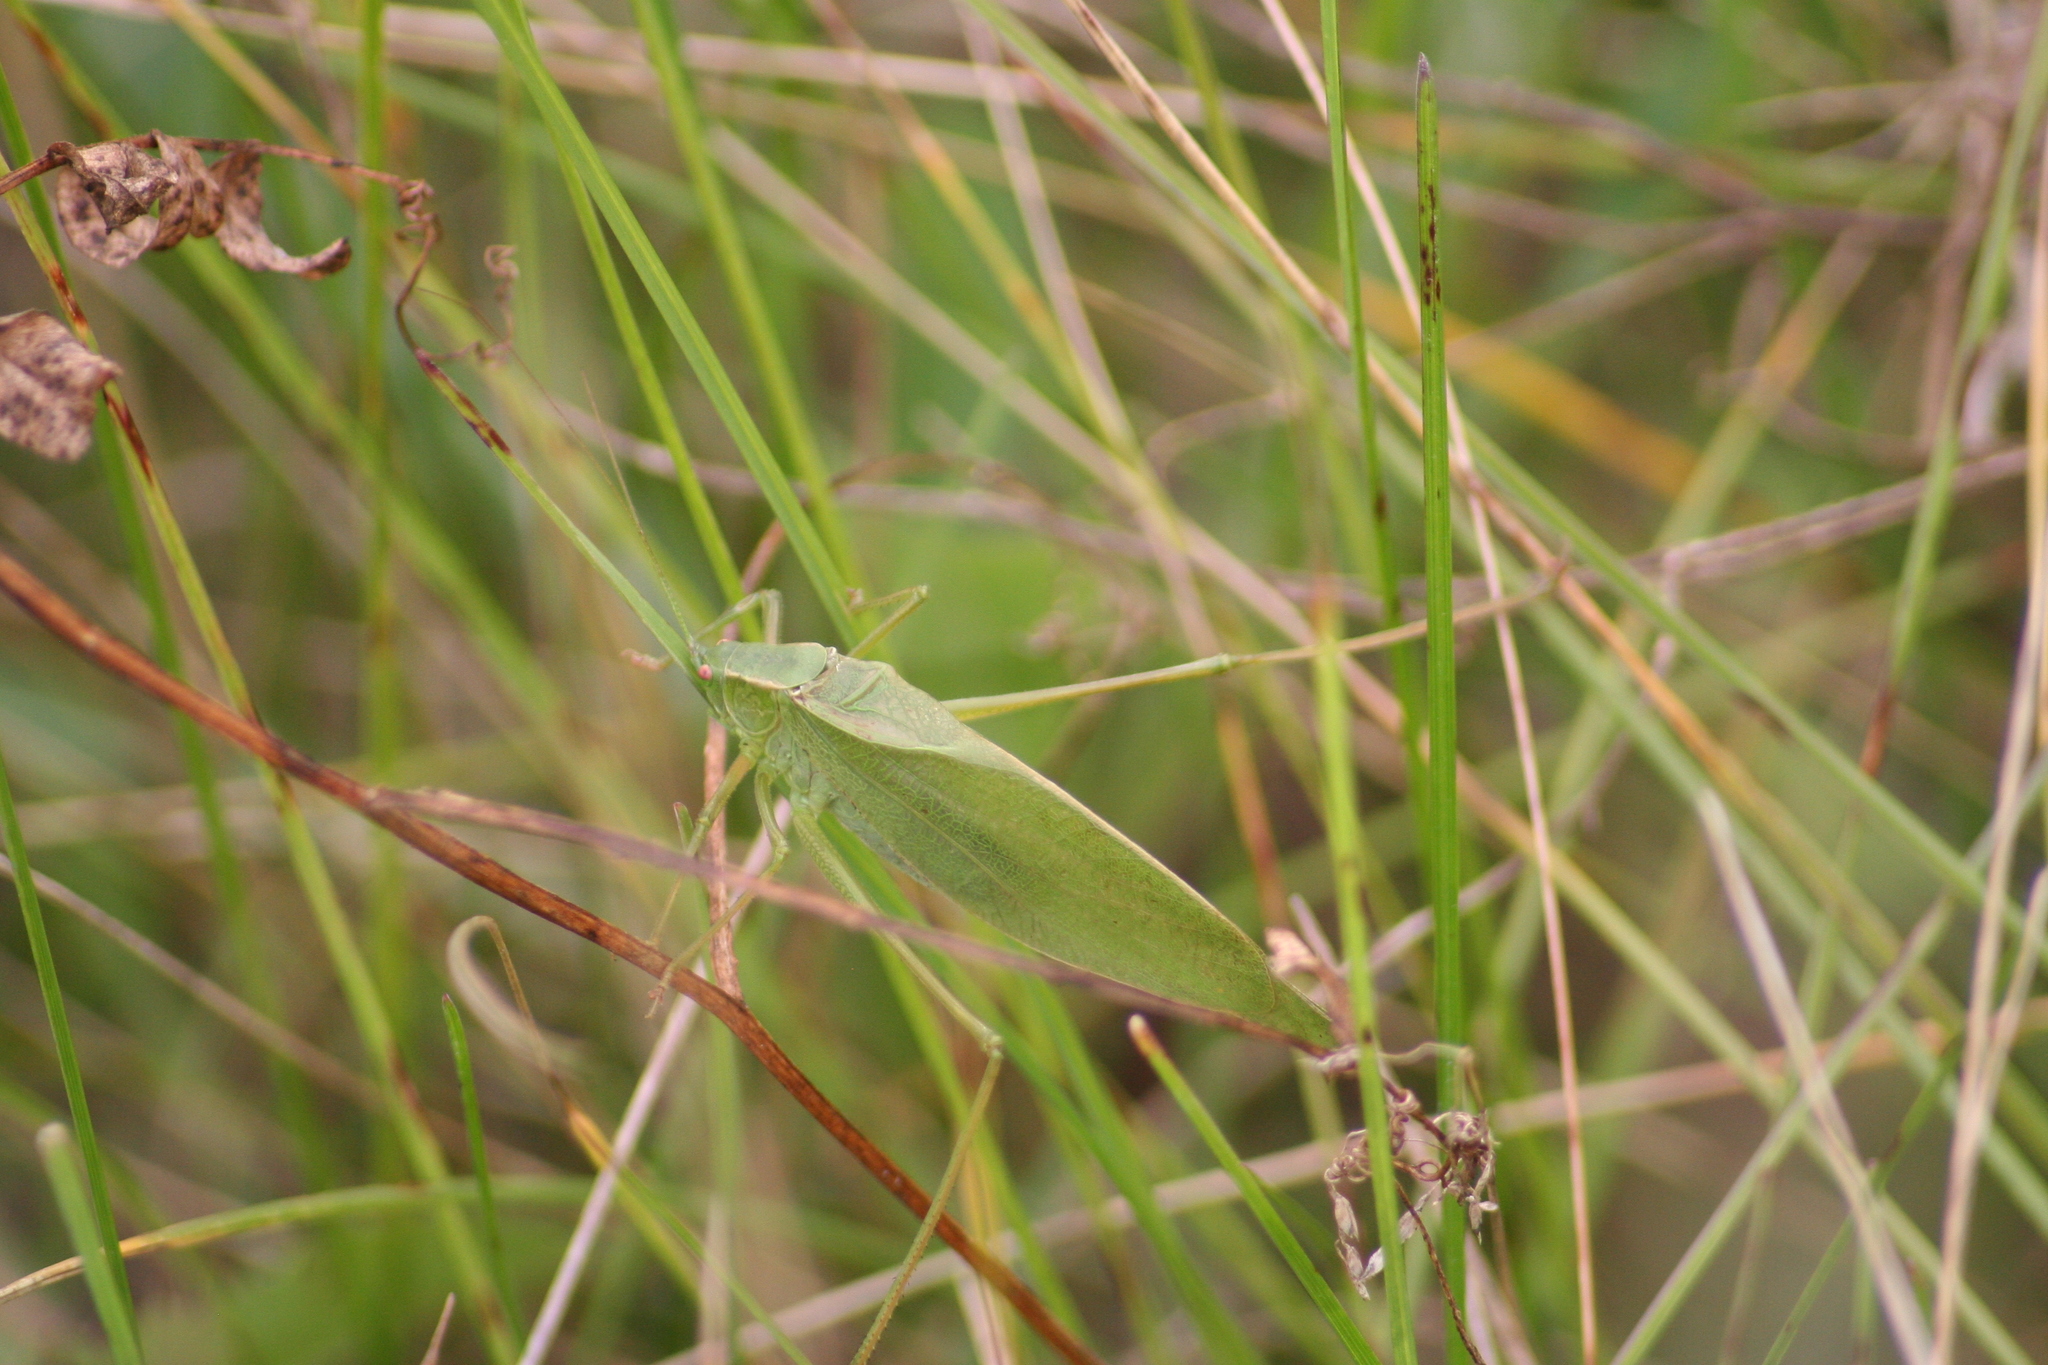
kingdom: Animalia
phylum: Arthropoda
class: Insecta
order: Orthoptera
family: Tettigoniidae
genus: Scudderia
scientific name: Scudderia pistillata
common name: Broad-winged bush-katydid
